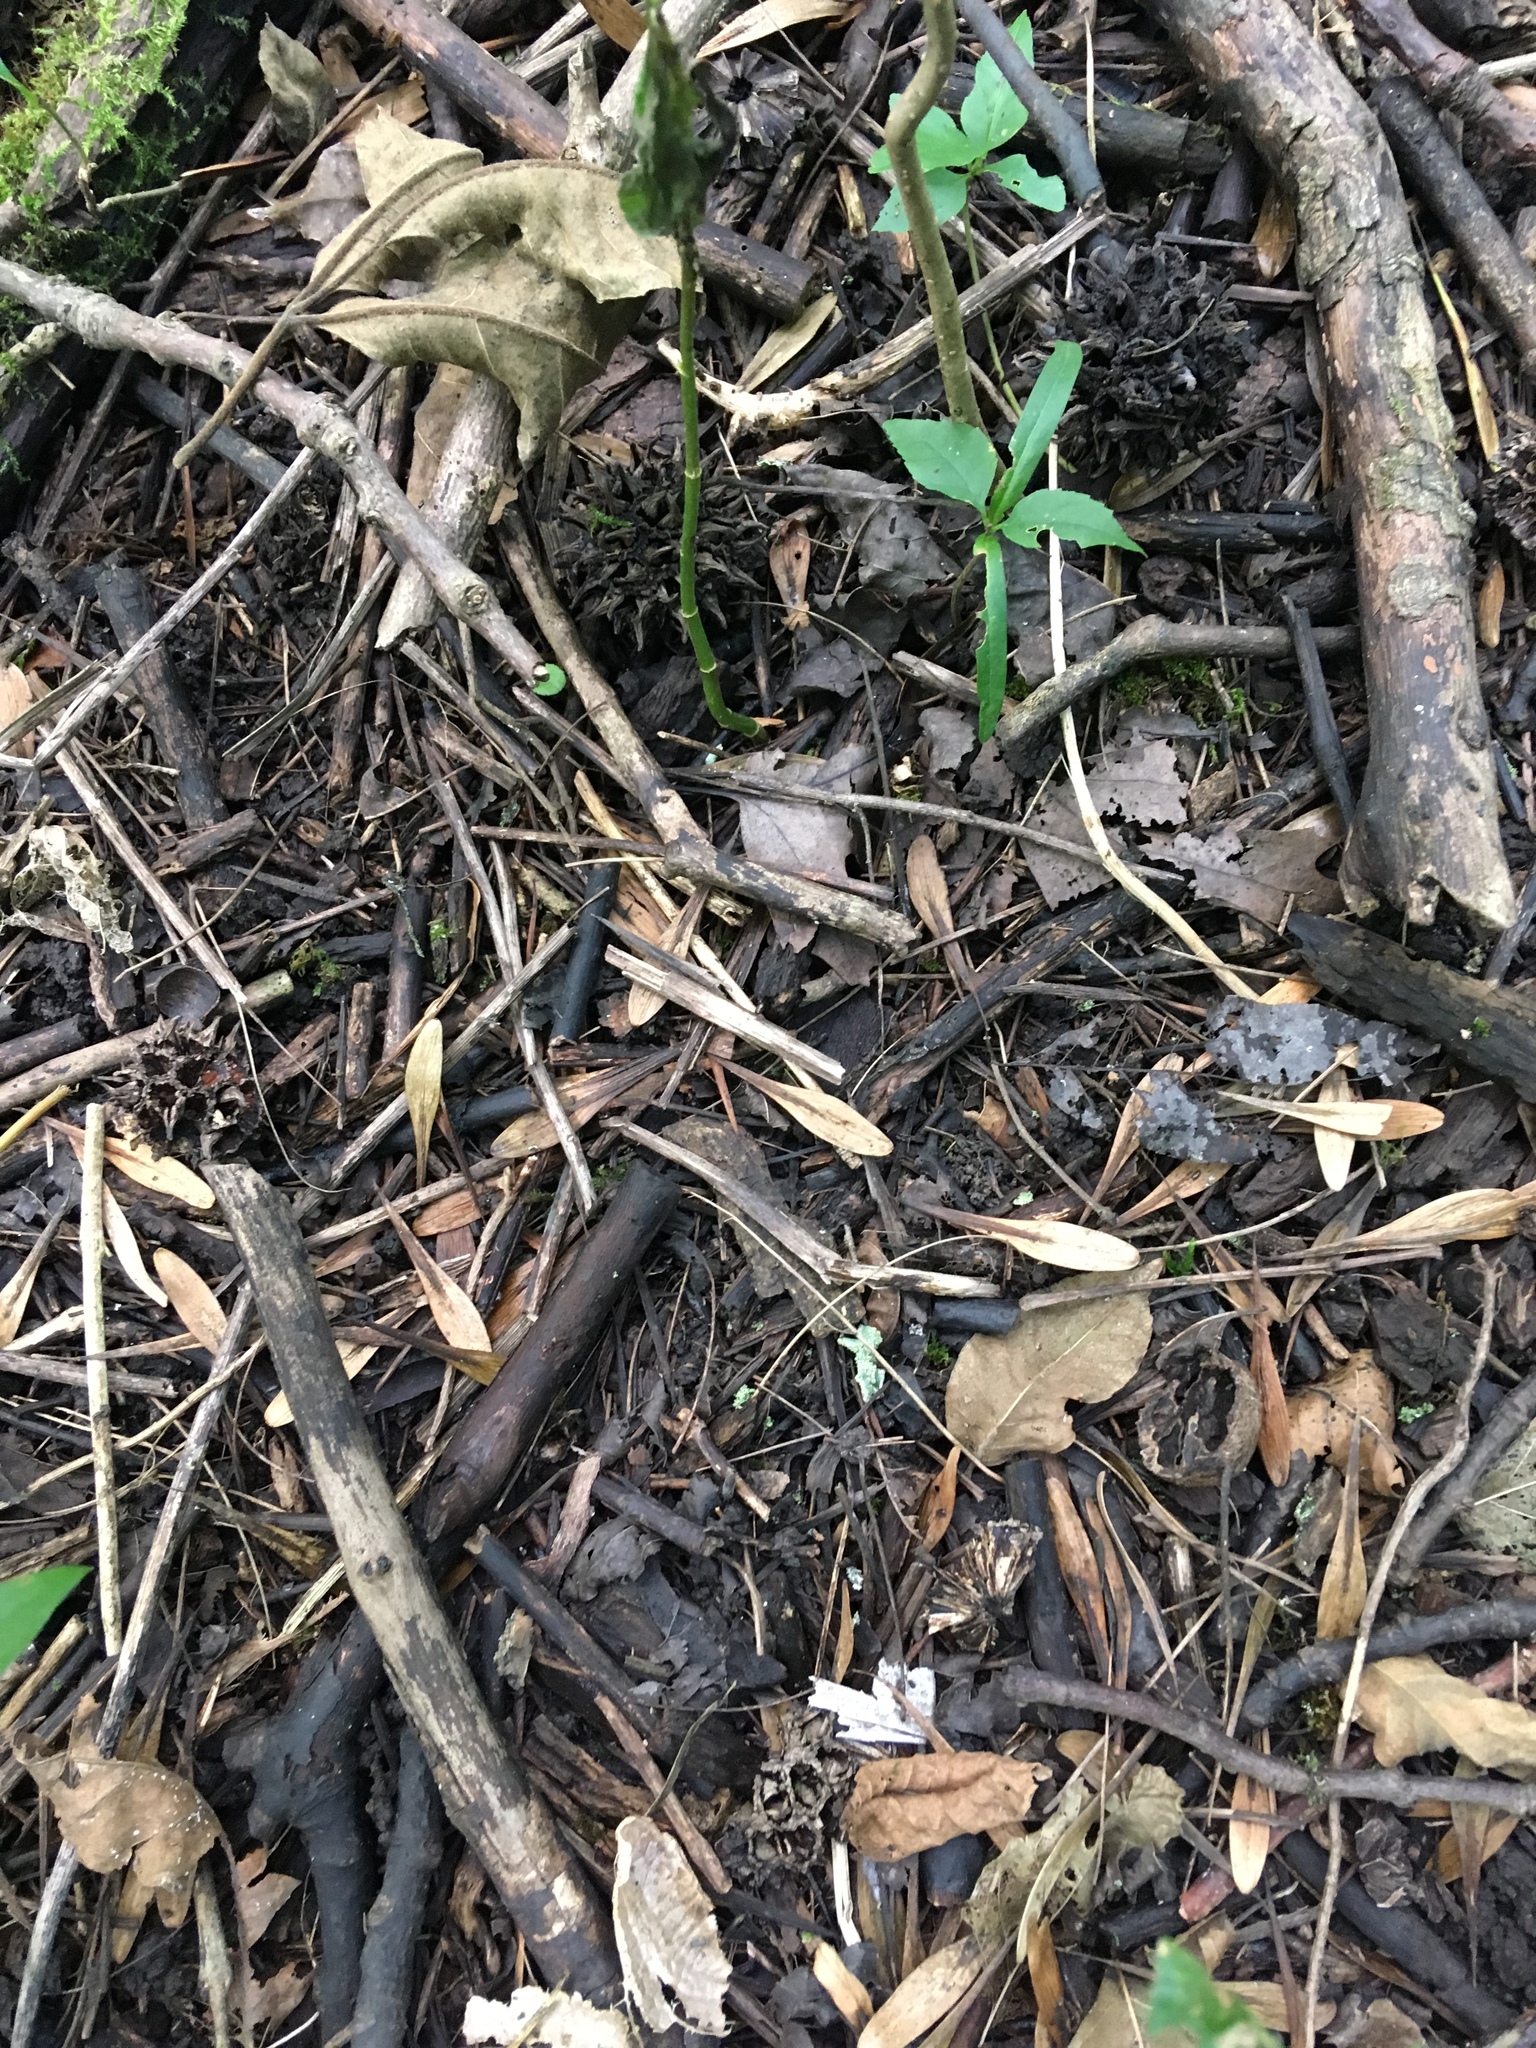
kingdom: Plantae
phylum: Tracheophyta
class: Magnoliopsida
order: Lamiales
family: Oleaceae
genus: Fraxinus
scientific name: Fraxinus pennsylvanica
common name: Green ash
